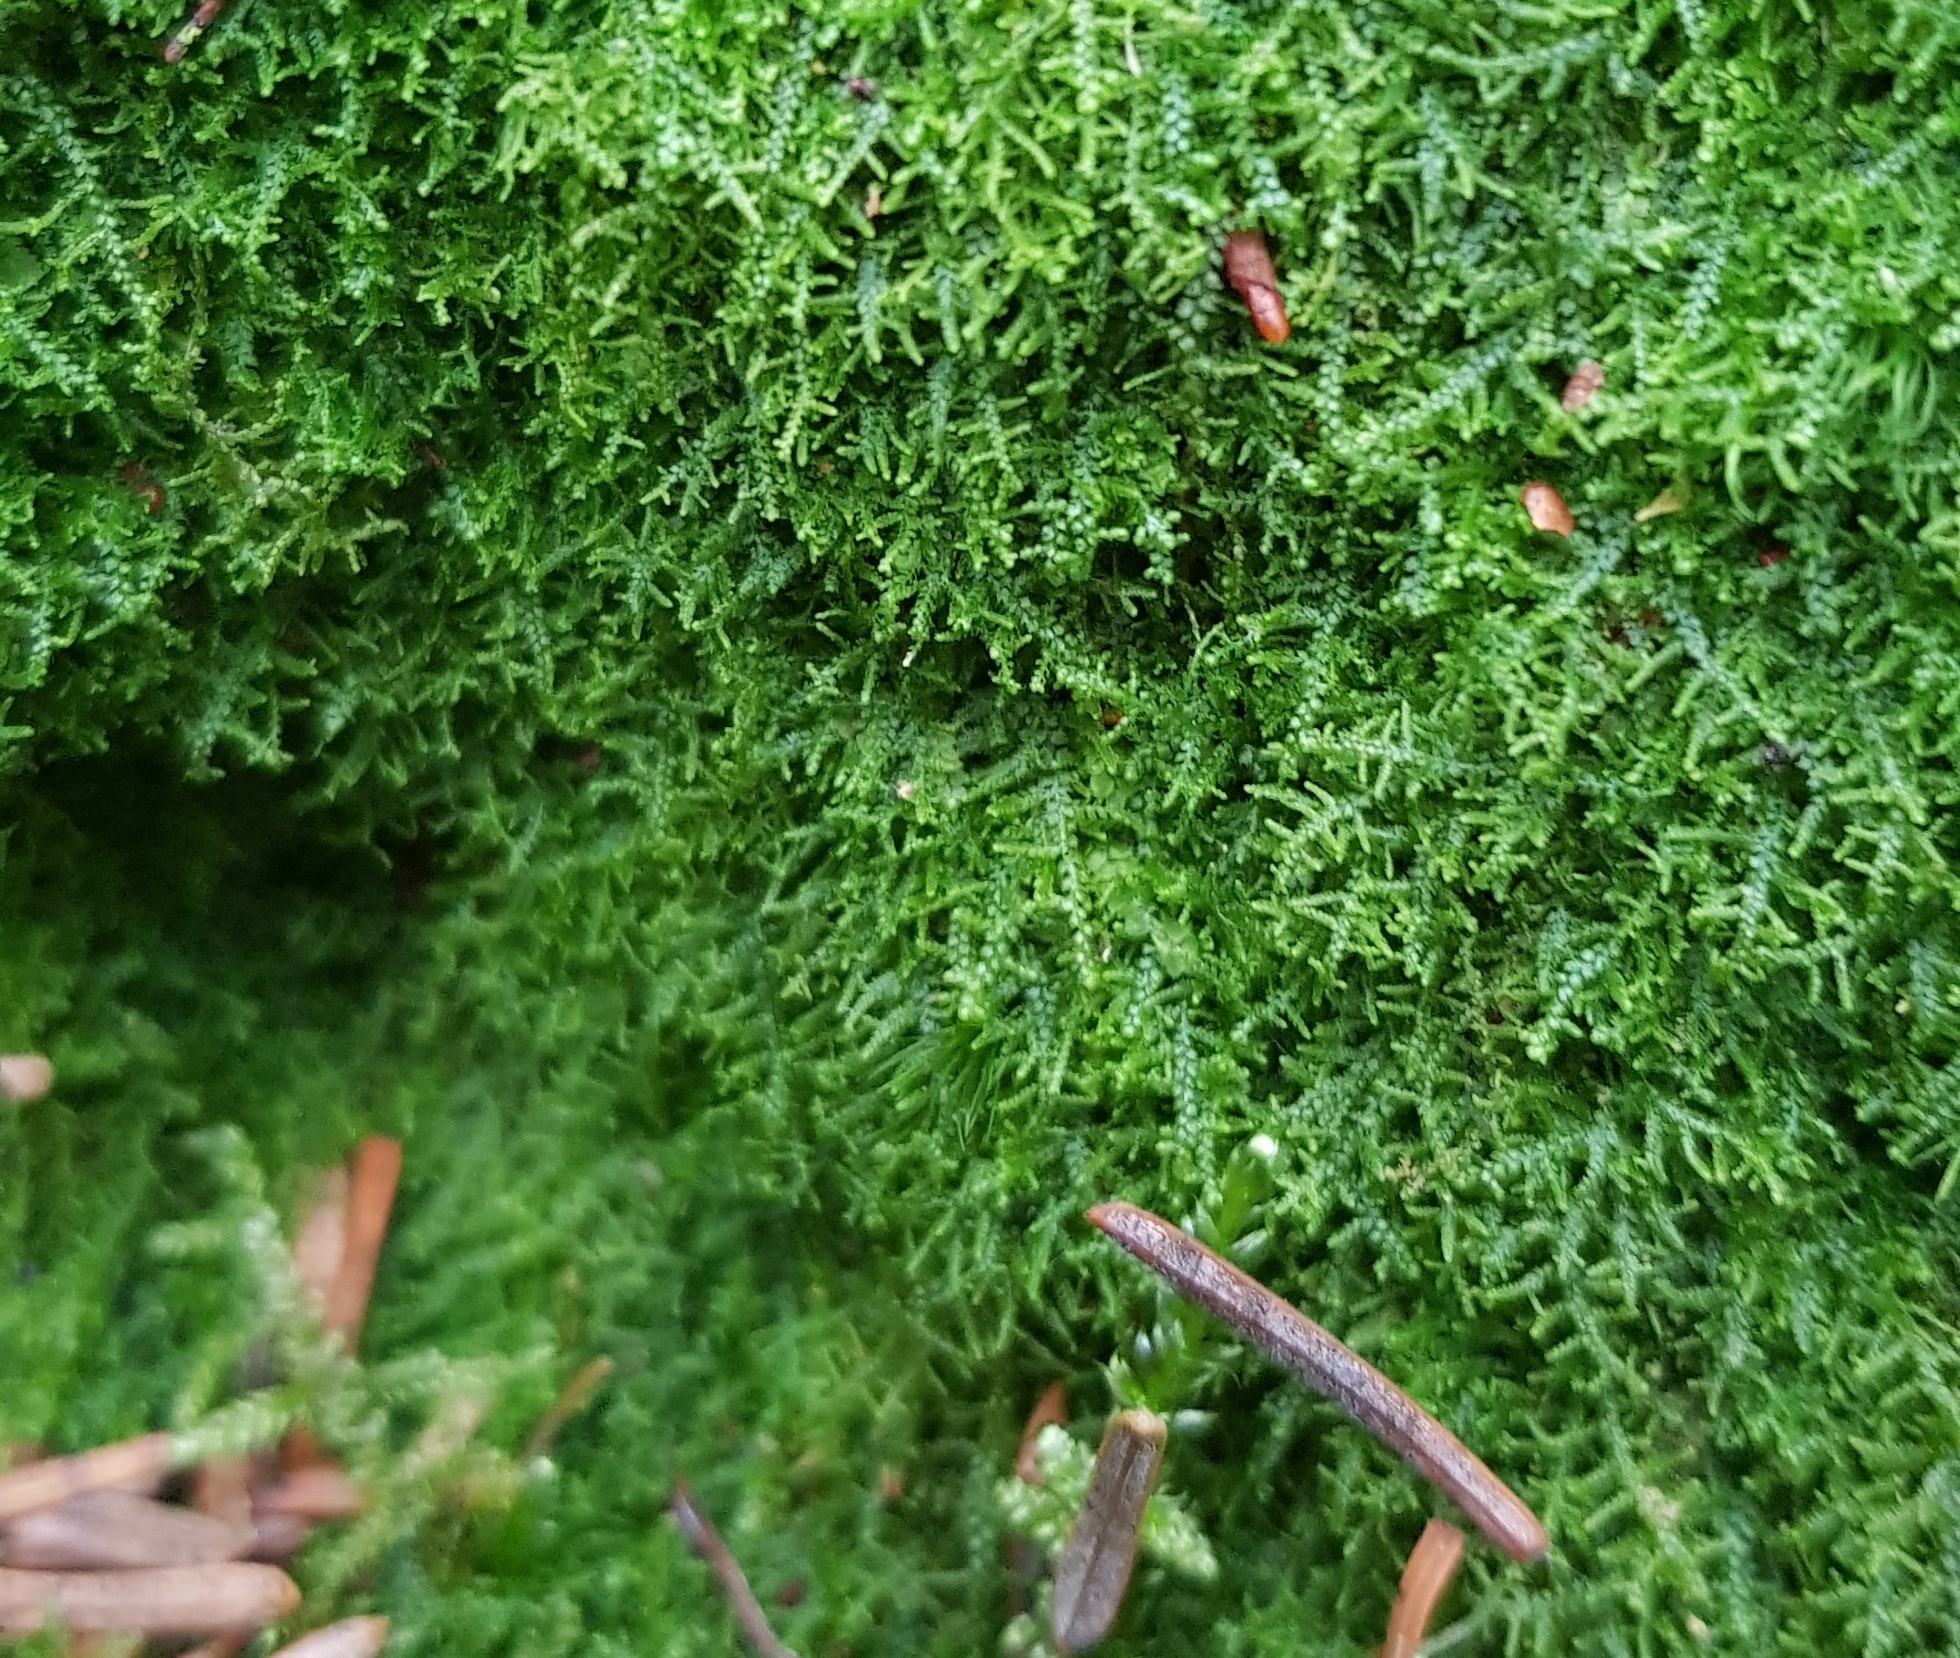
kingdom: Plantae
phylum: Marchantiophyta
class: Jungermanniopsida
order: Jungermanniales
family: Lepidoziaceae
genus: Lepidozia
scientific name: Lepidozia reptans
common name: Creeping fingerwort
